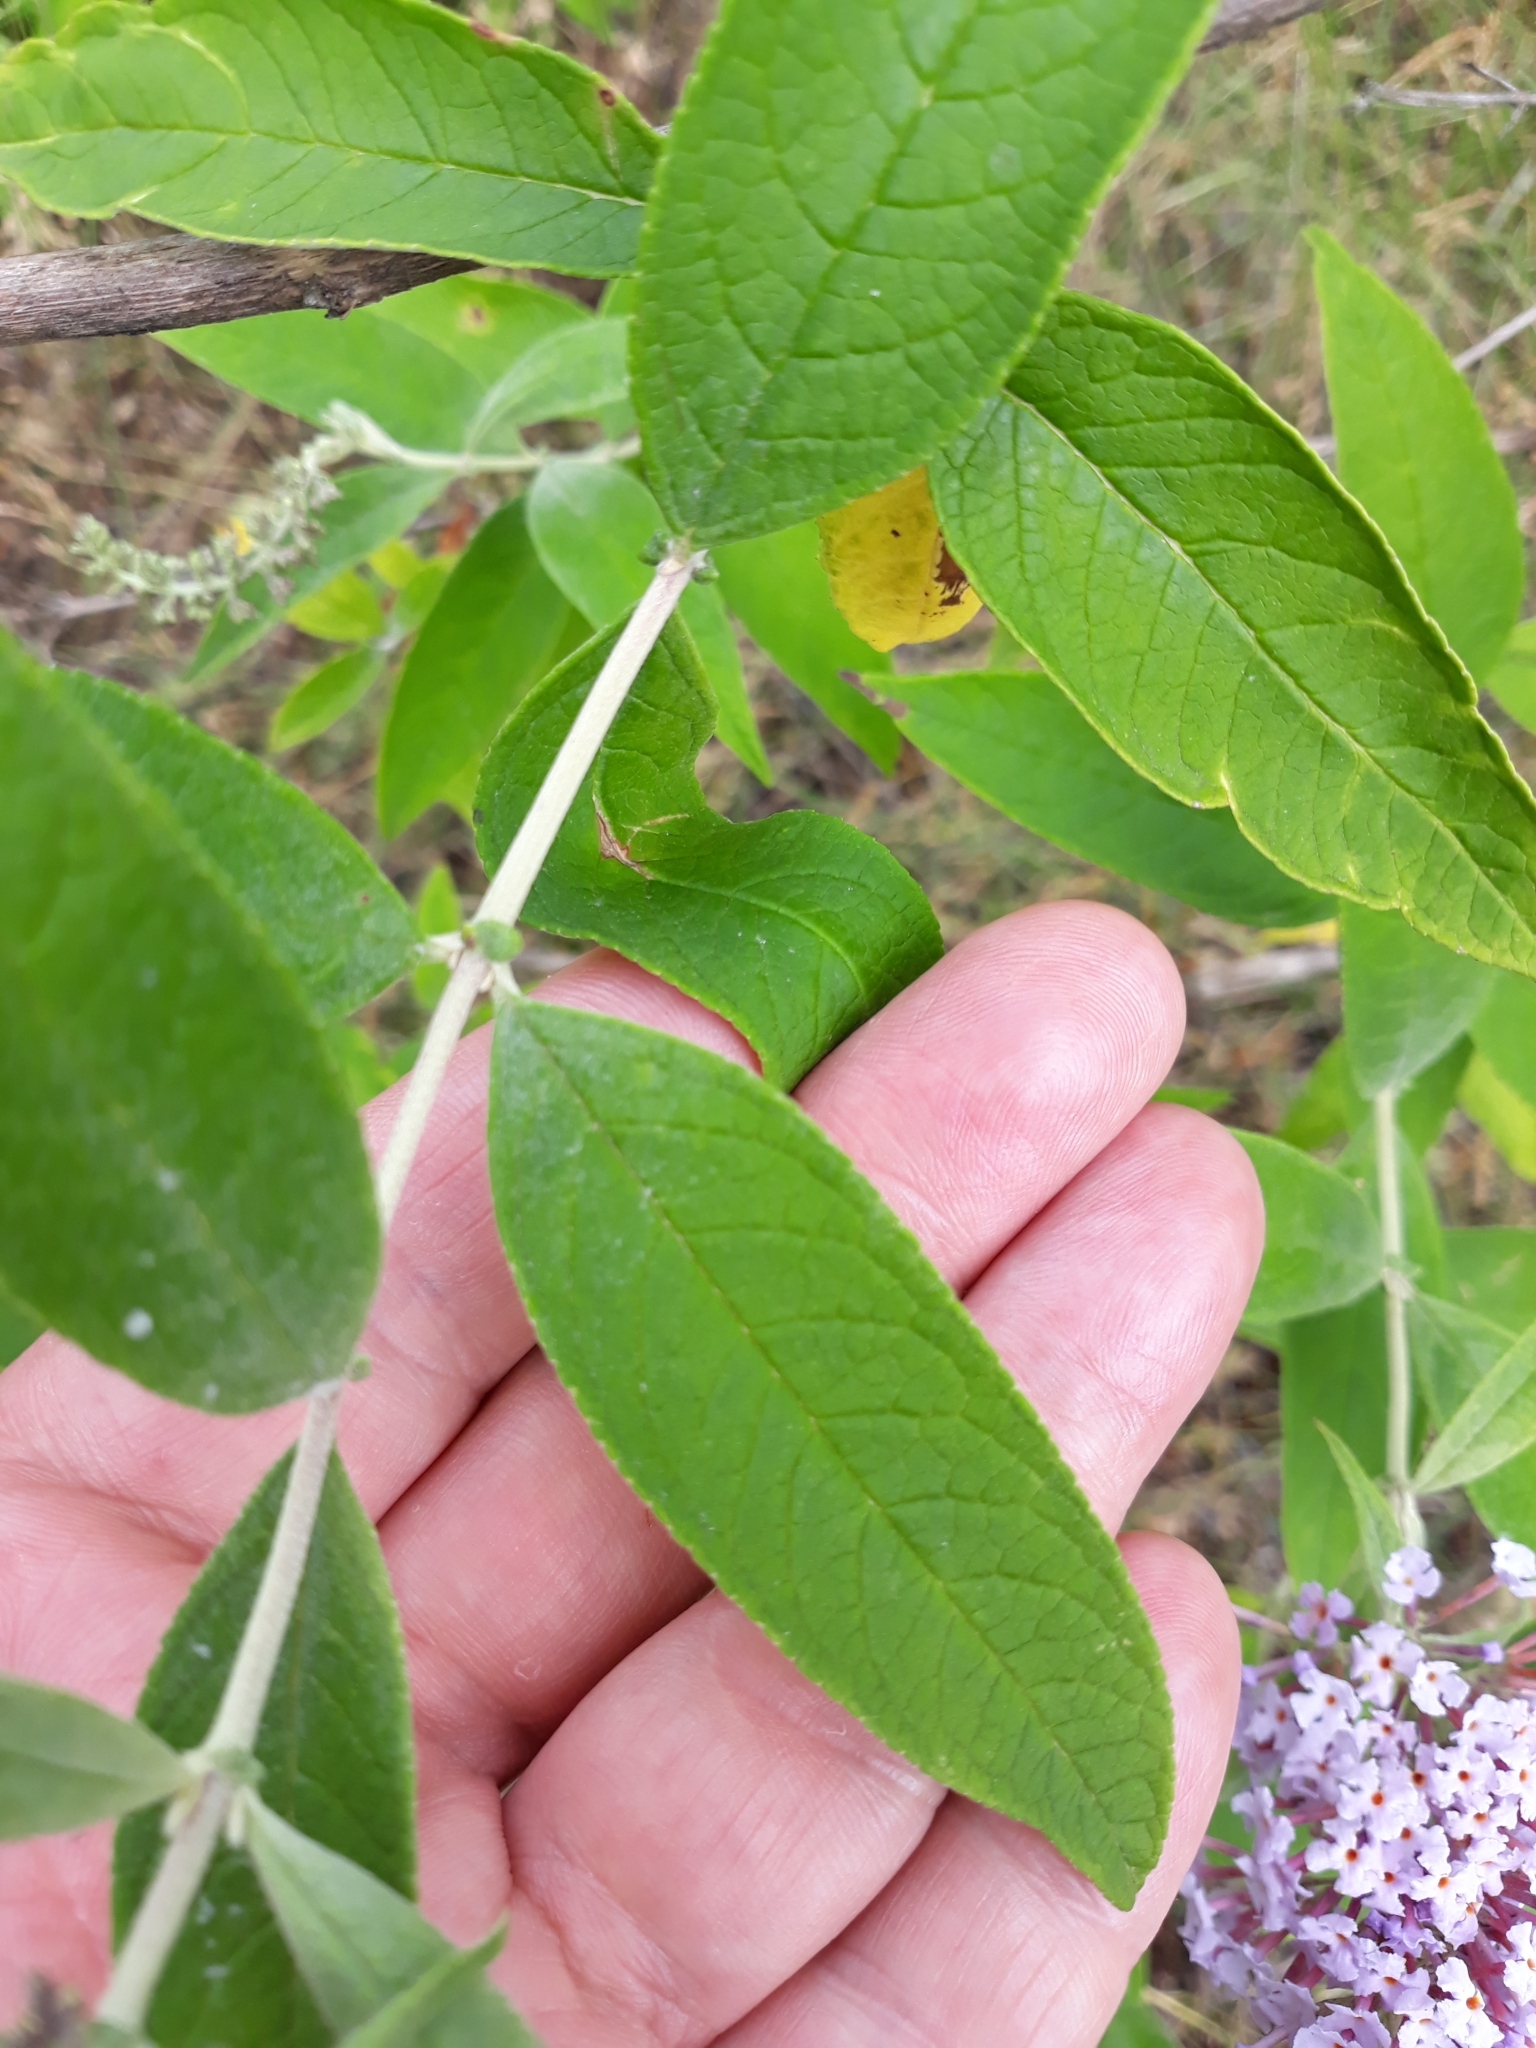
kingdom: Plantae
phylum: Tracheophyta
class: Magnoliopsida
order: Lamiales
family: Scrophulariaceae
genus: Buddleja
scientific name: Buddleja davidii
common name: Butterfly-bush
